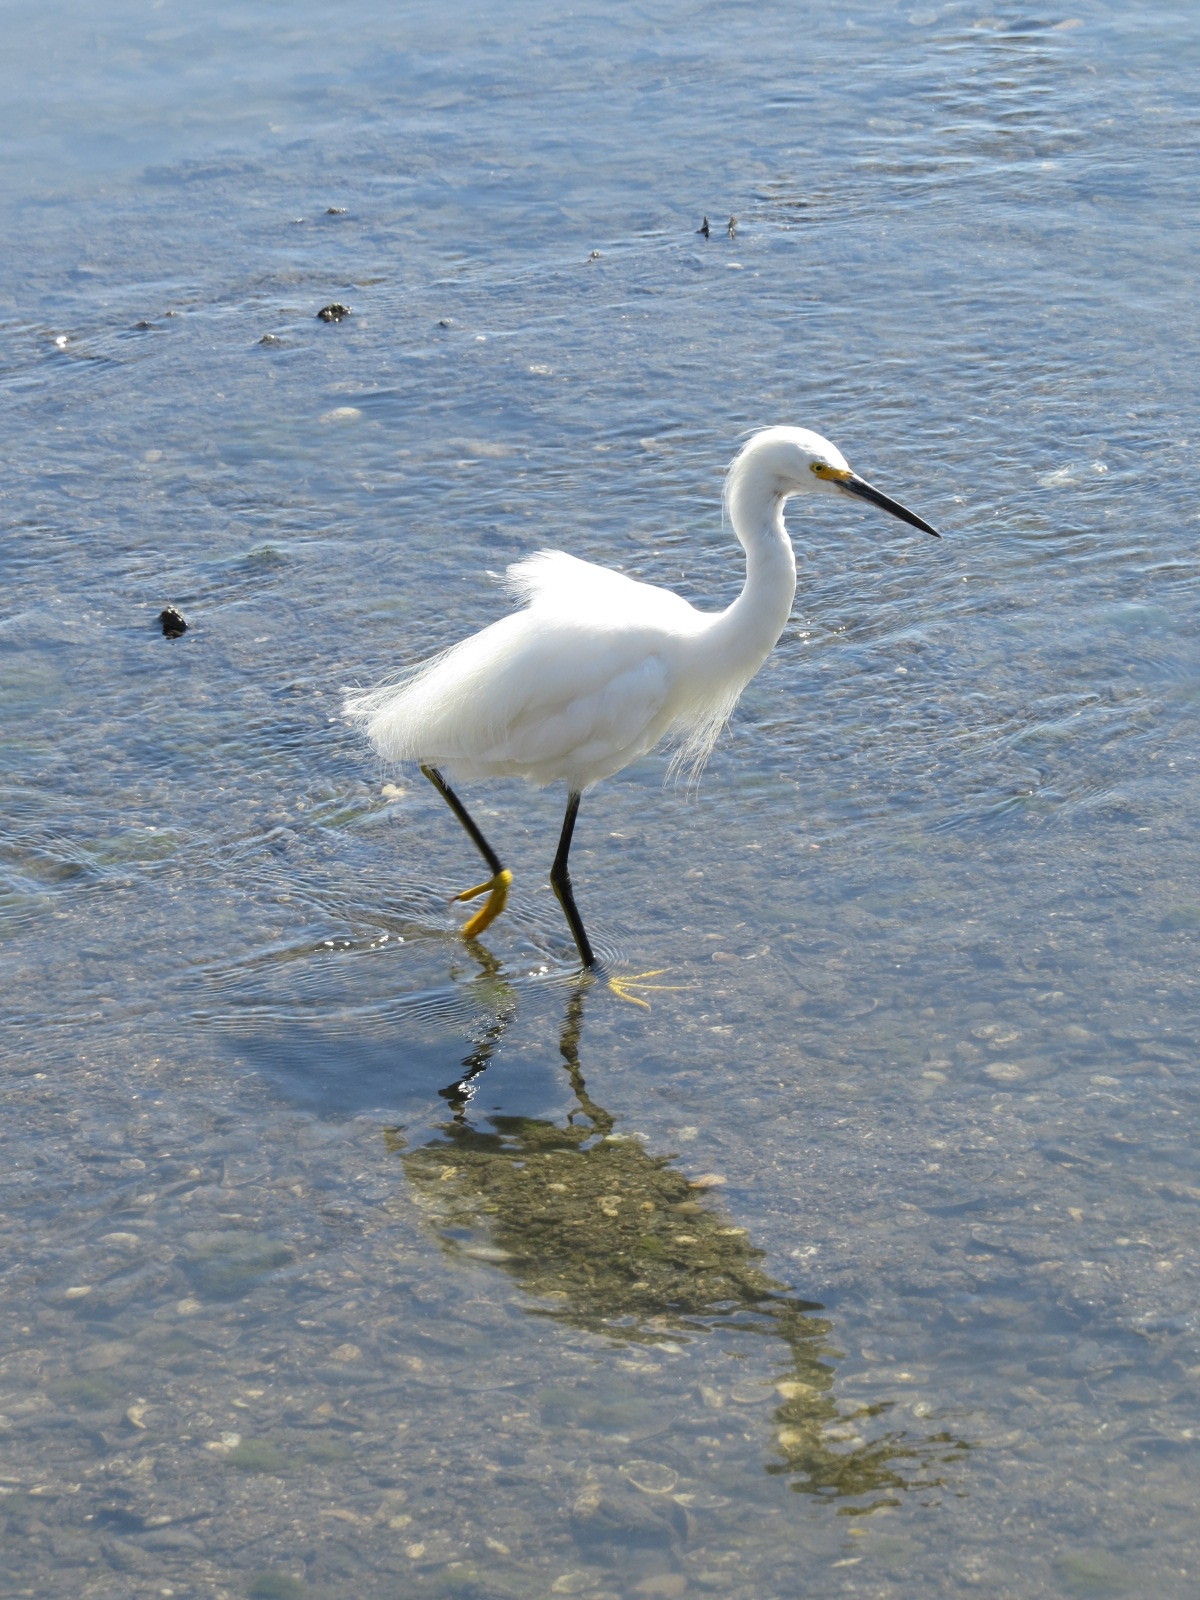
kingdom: Animalia
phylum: Chordata
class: Aves
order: Pelecaniformes
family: Ardeidae
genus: Egretta
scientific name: Egretta thula
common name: Snowy egret
